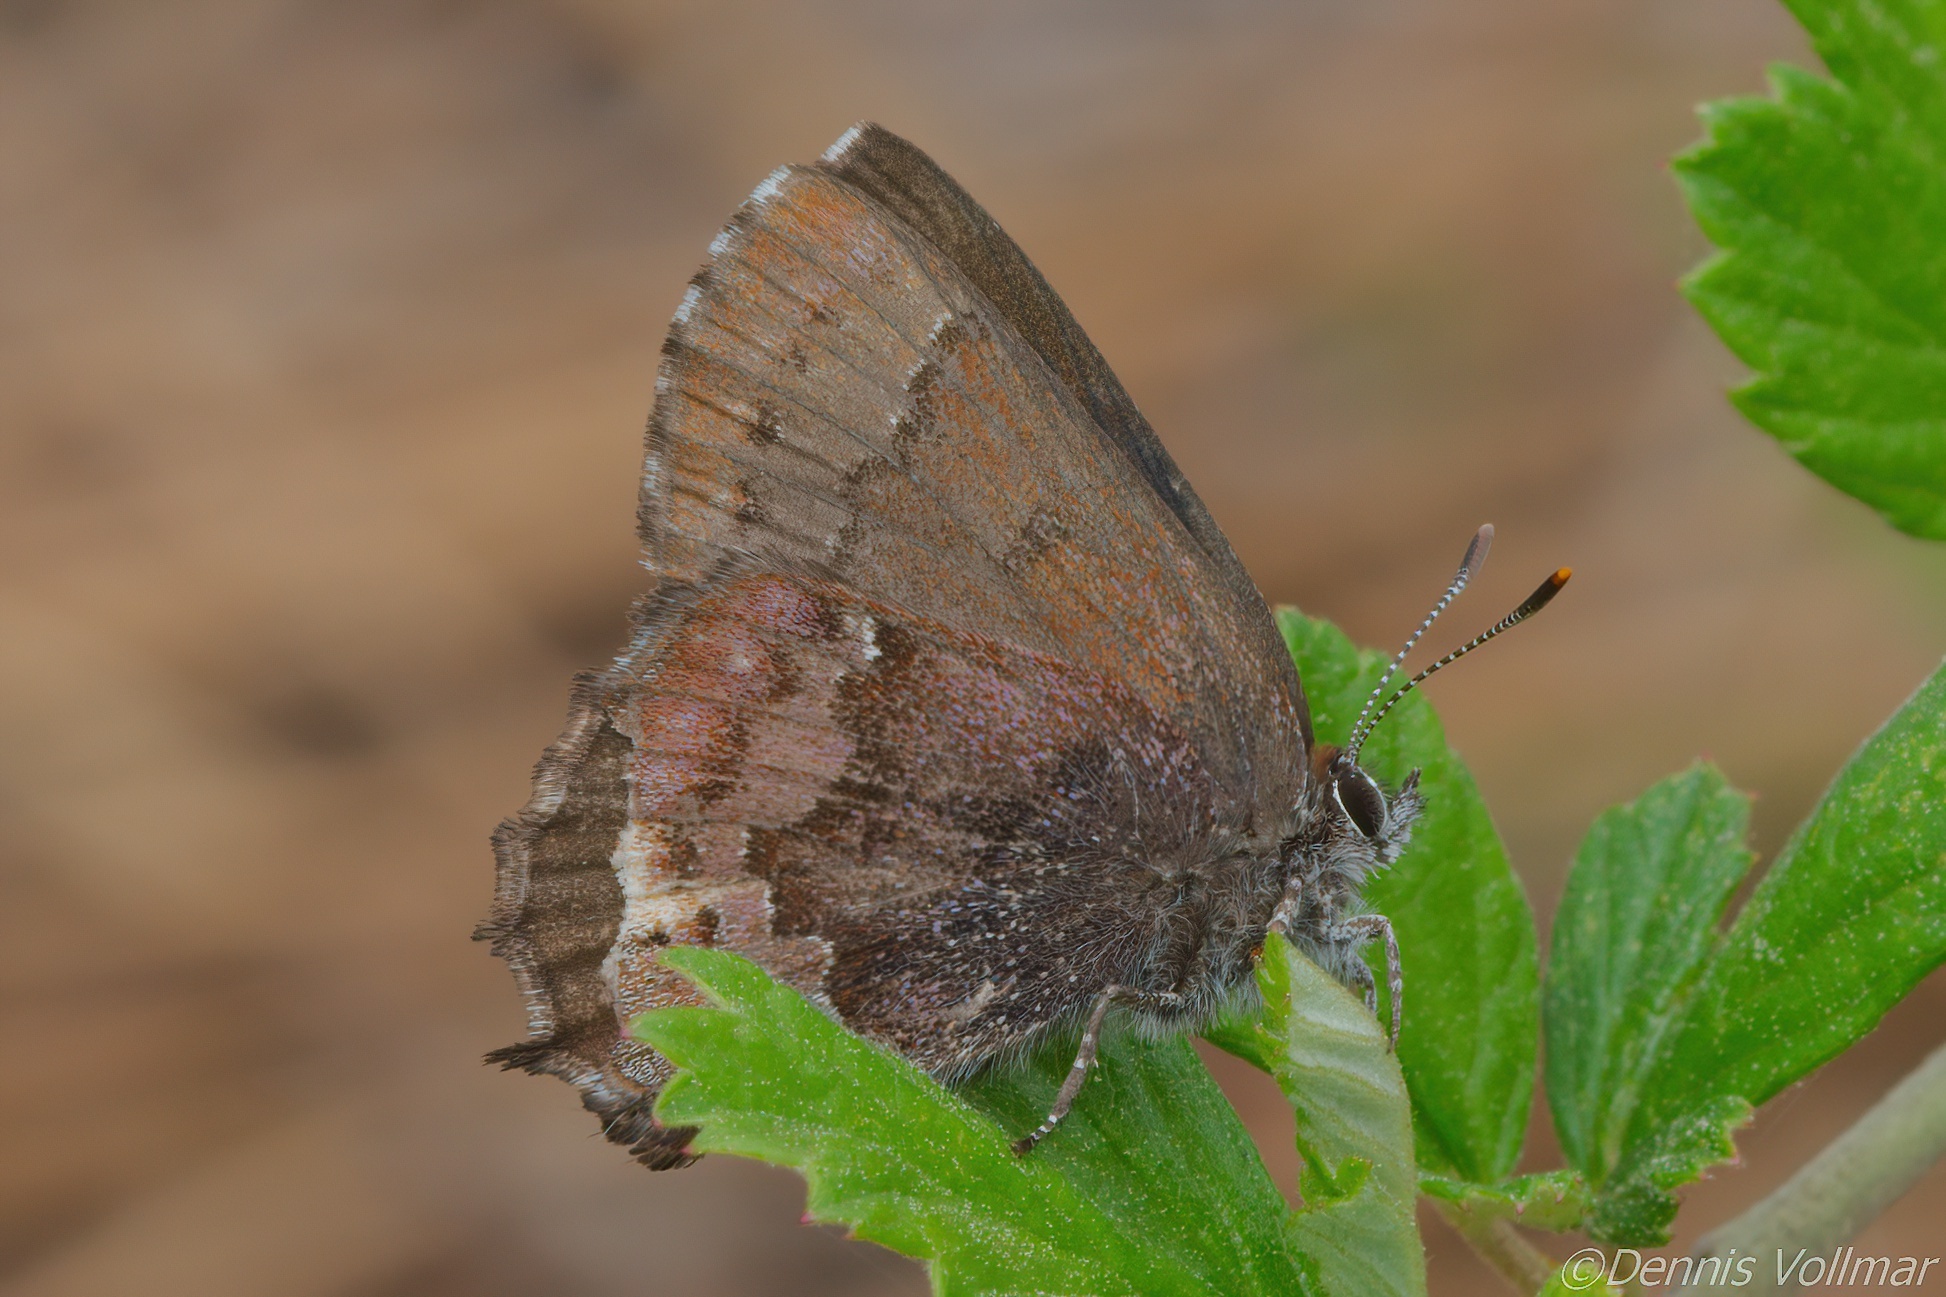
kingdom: Animalia
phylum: Arthropoda
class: Insecta
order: Lepidoptera
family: Lycaenidae
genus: Thecla
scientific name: Thecla irus
